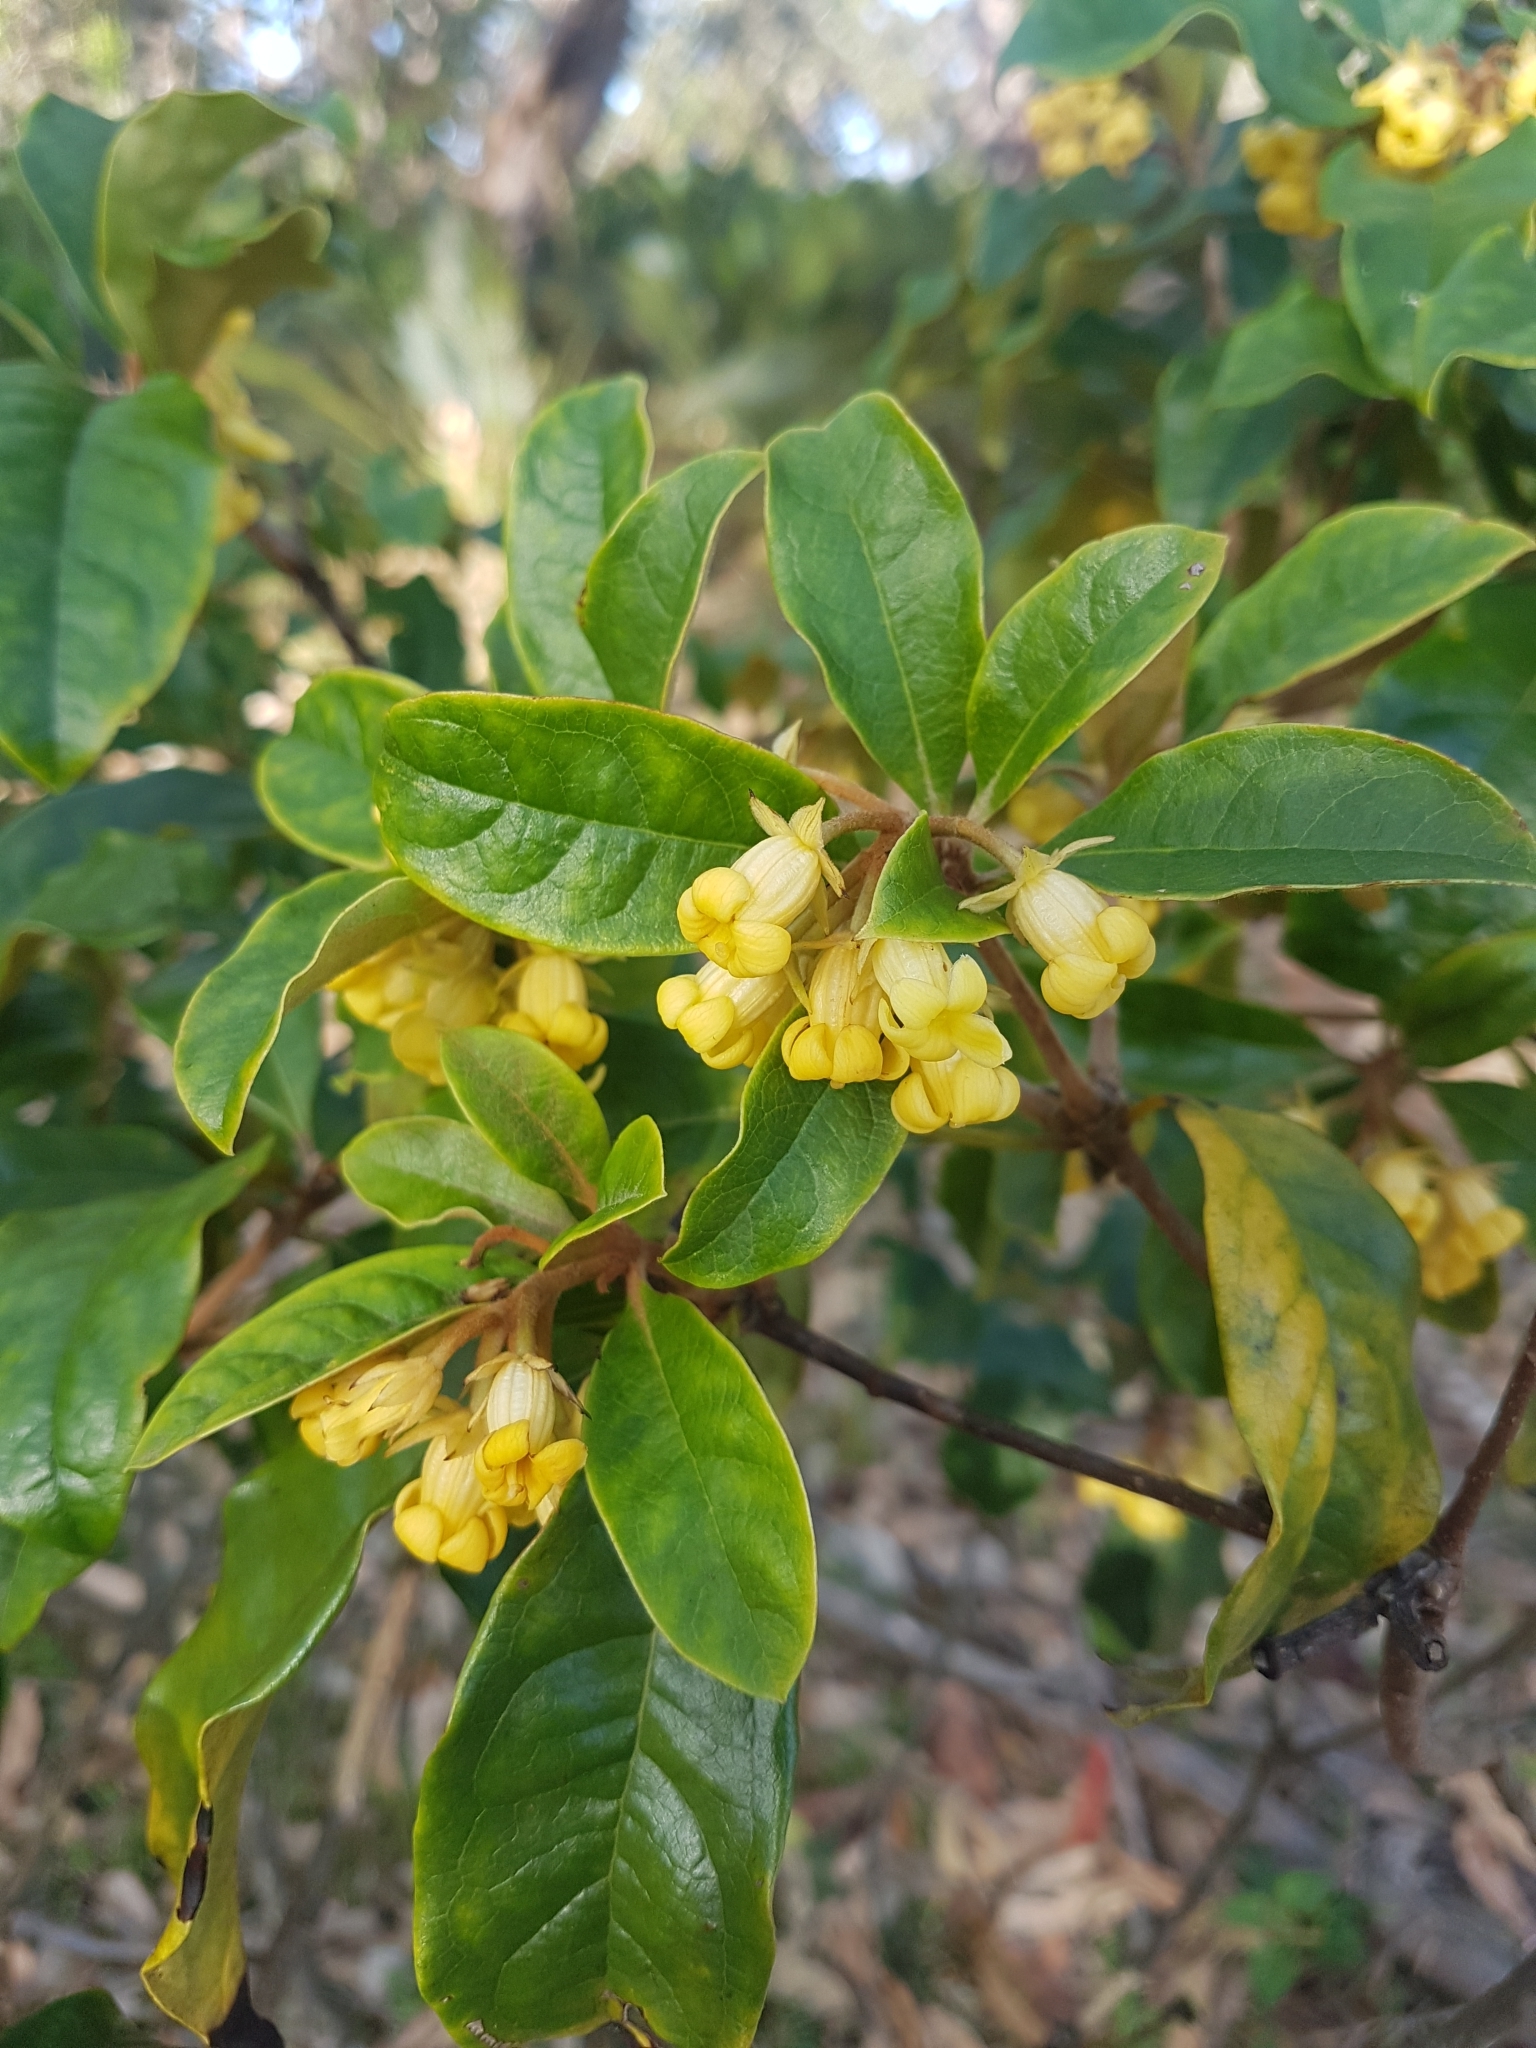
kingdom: Plantae
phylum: Tracheophyta
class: Magnoliopsida
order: Apiales
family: Pittosporaceae
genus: Pittosporum
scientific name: Pittosporum revolutum
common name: Brisbane-laurel
